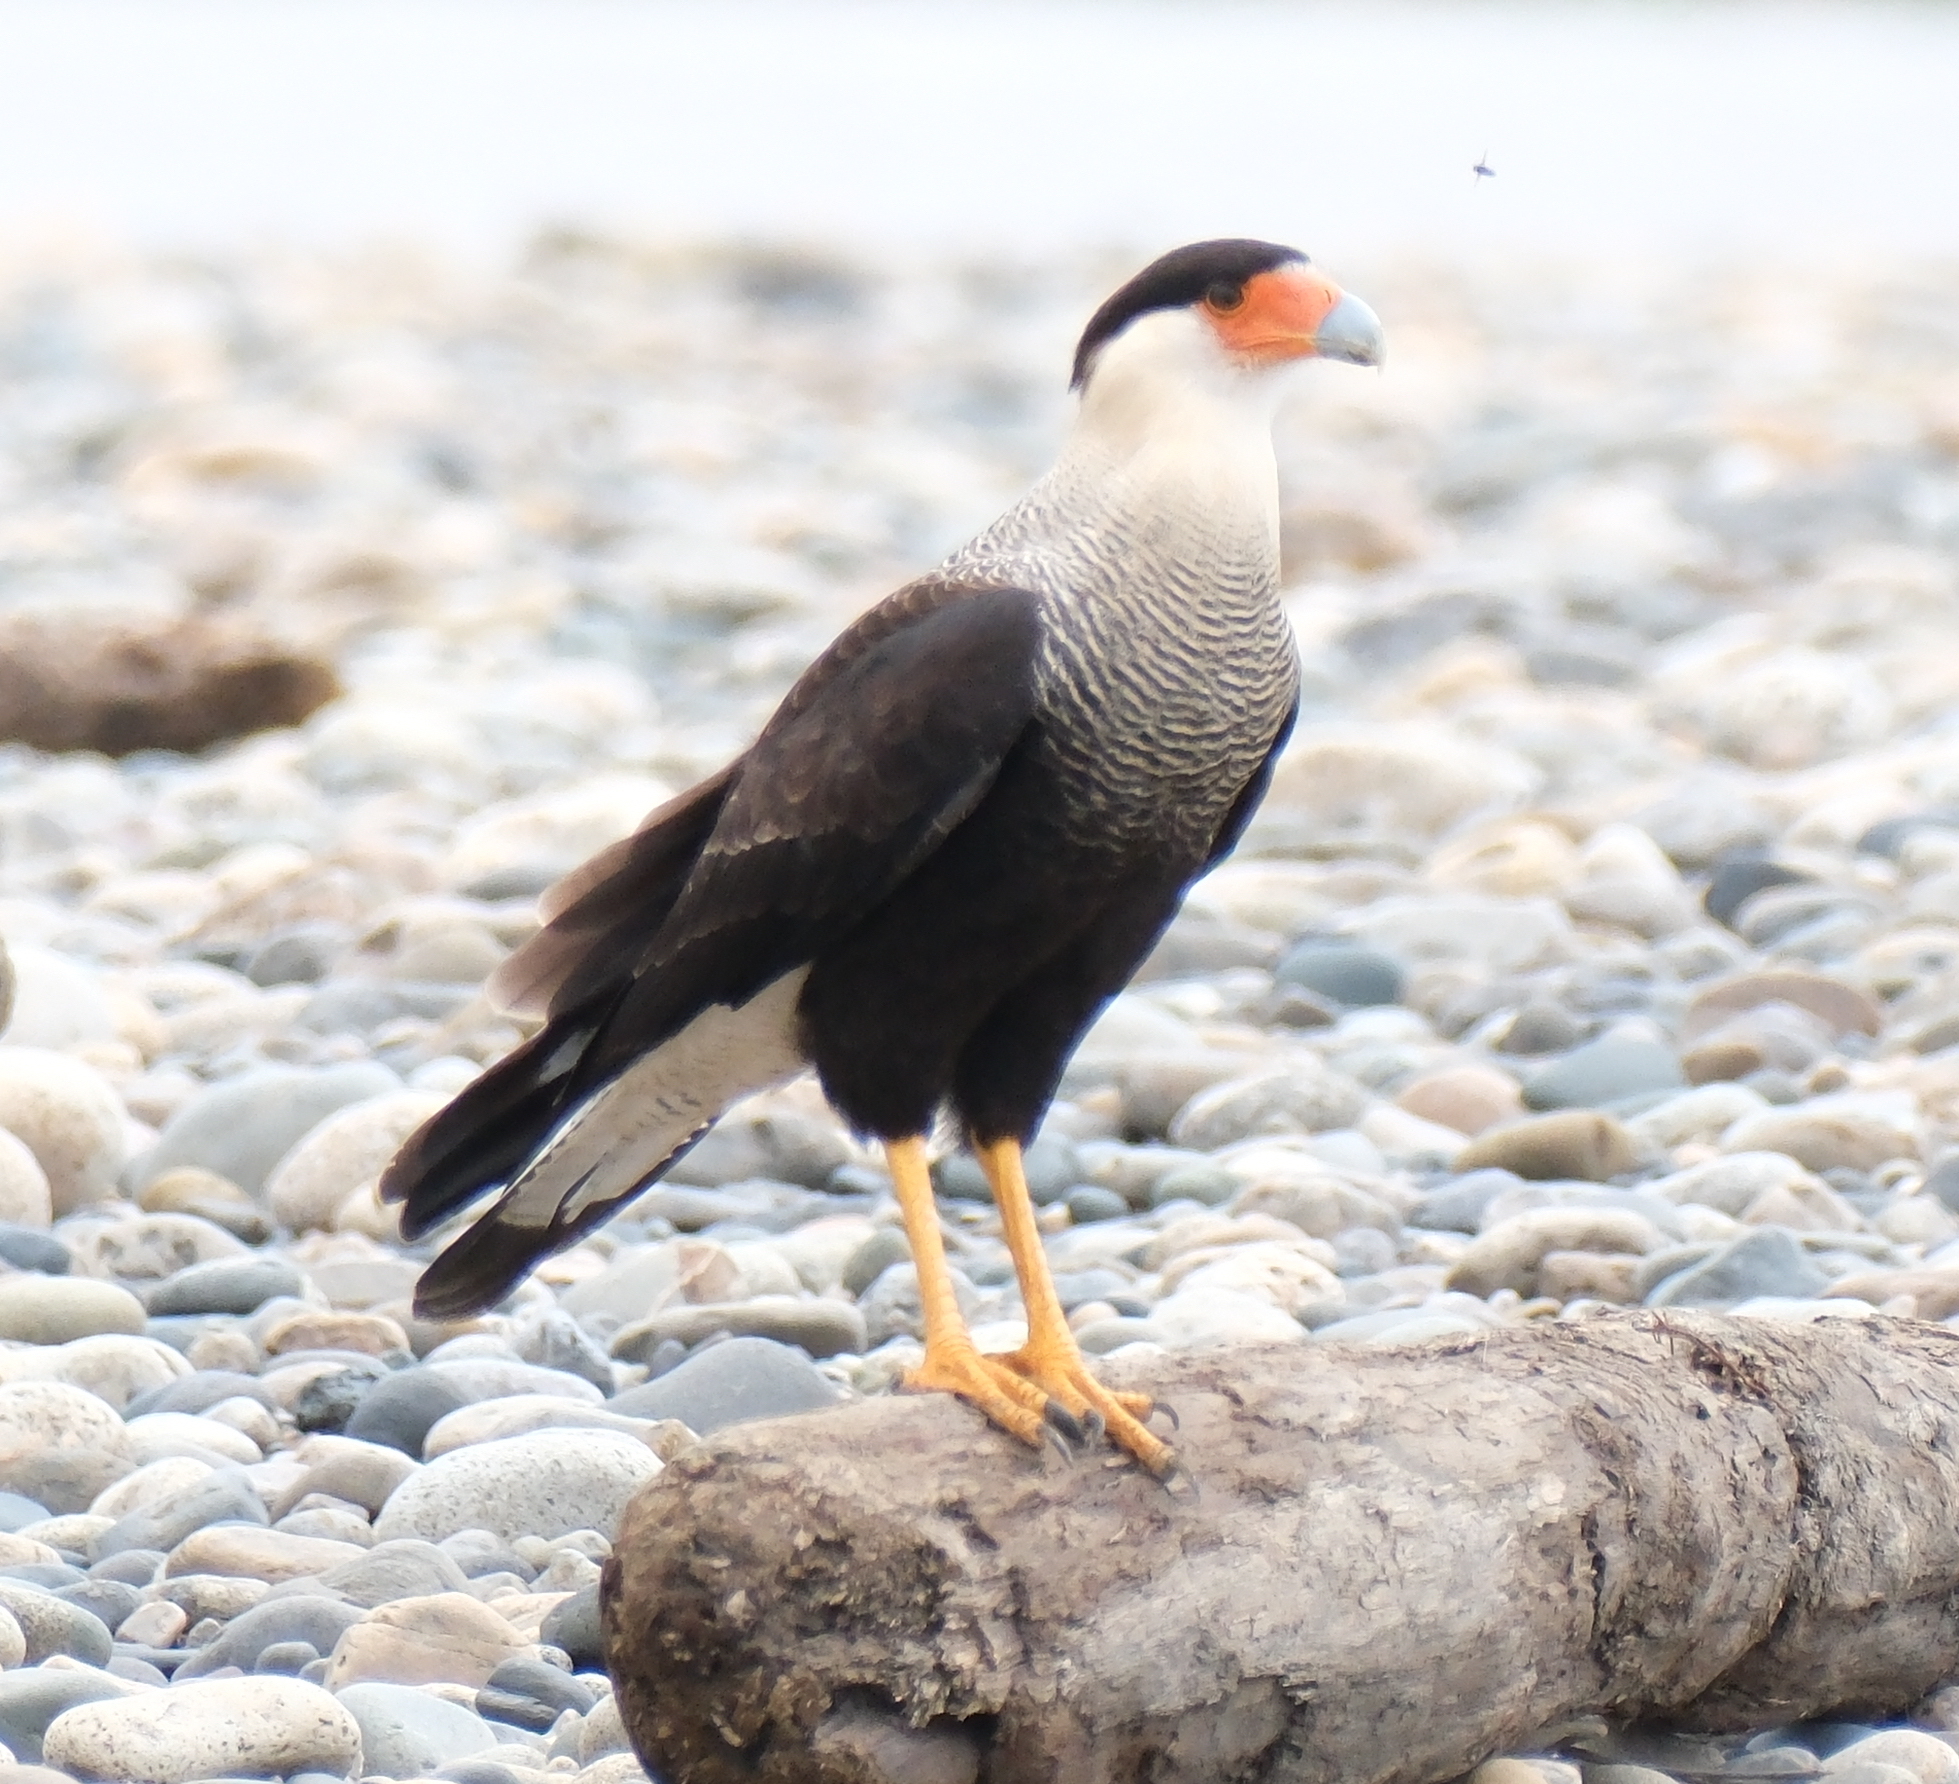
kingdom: Animalia
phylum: Chordata
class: Aves
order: Falconiformes
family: Falconidae
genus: Caracara
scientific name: Caracara plancus
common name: Southern caracara
